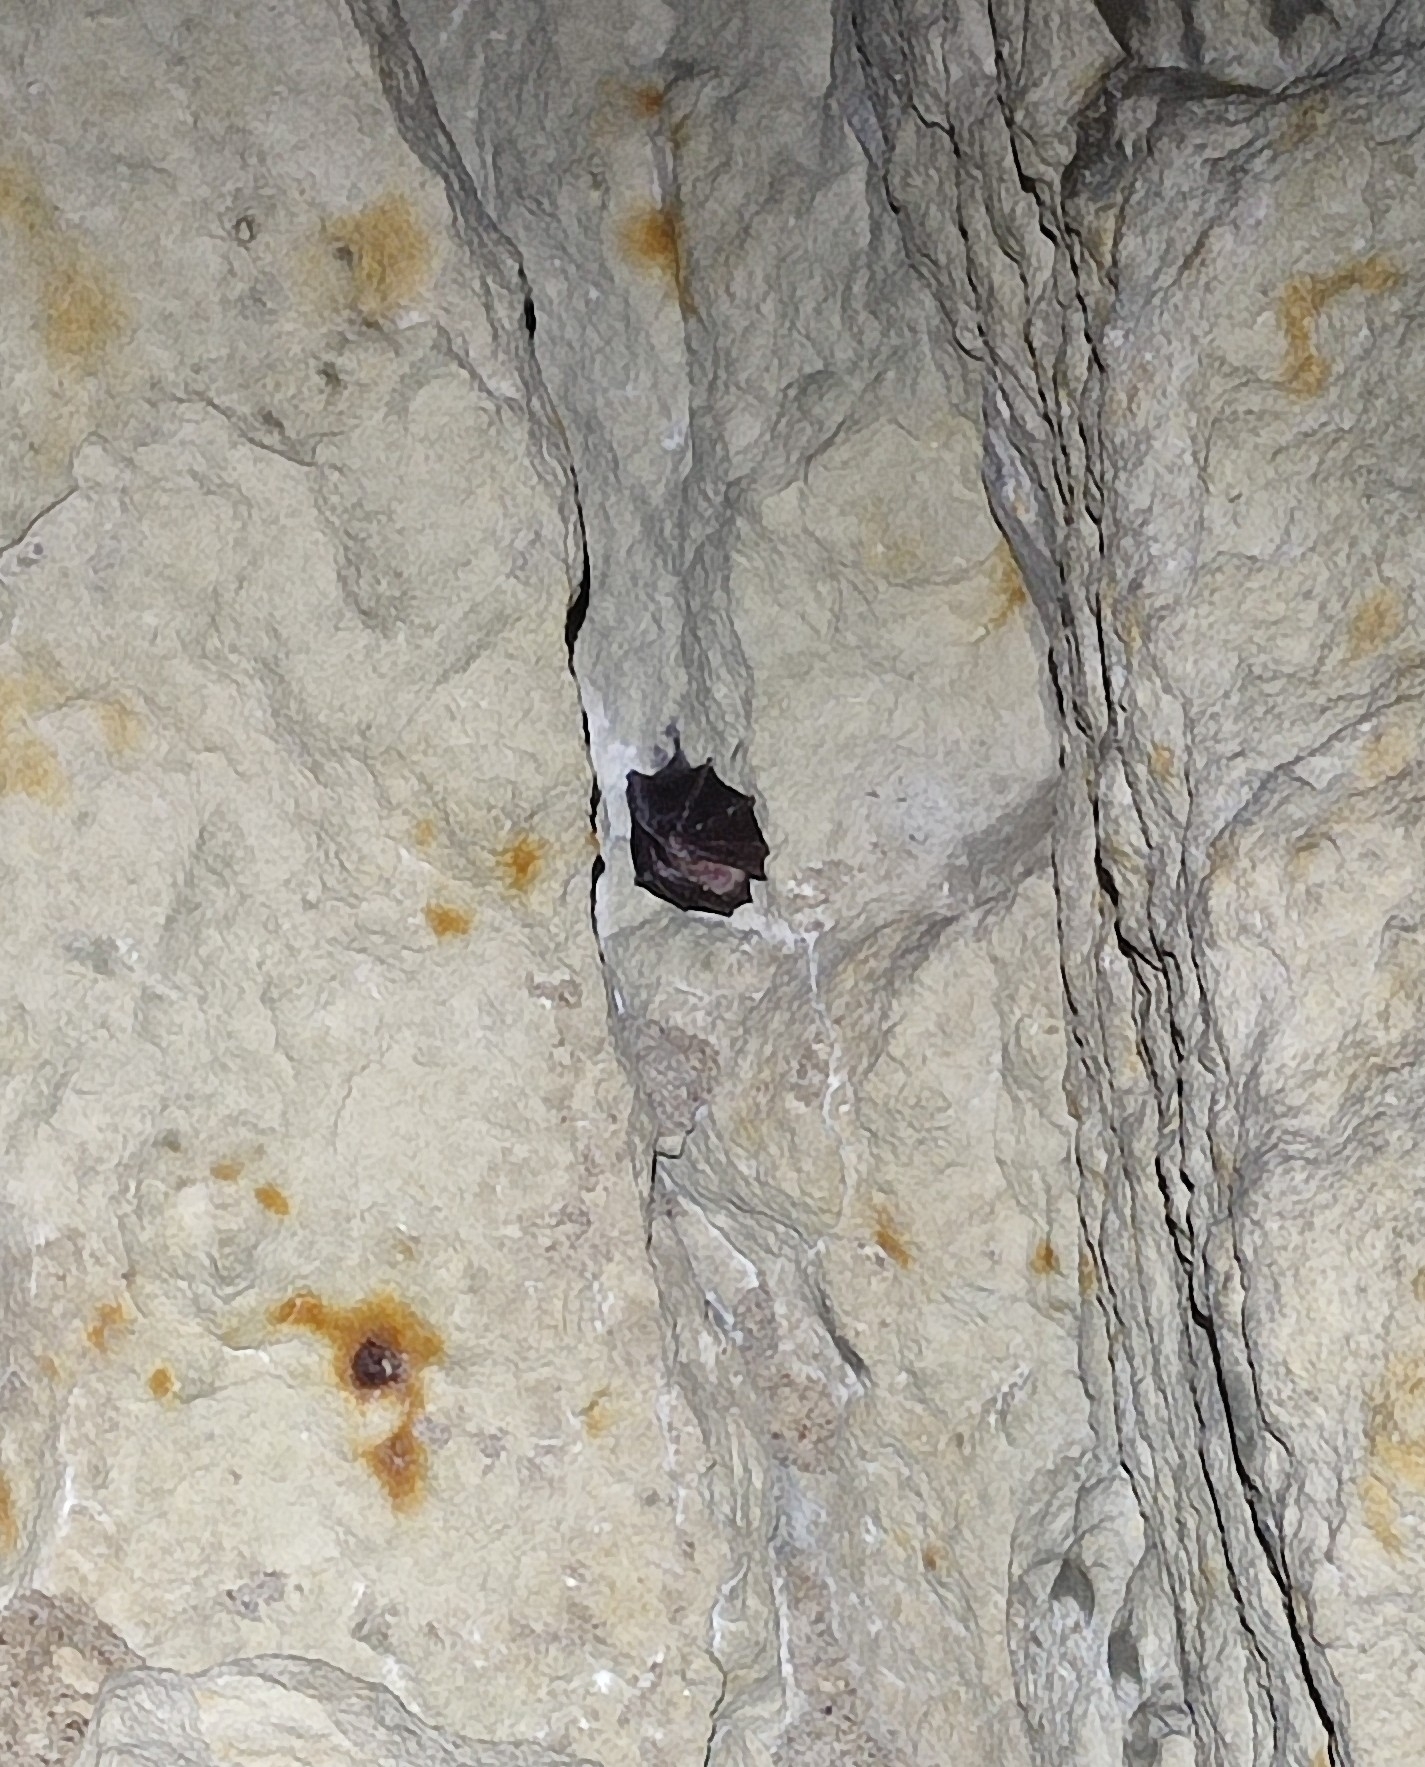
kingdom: Animalia
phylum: Chordata
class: Mammalia
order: Chiroptera
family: Rhinolophidae
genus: Rhinolophus
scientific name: Rhinolophus ferrumequinum
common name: Greater horseshoe bat
